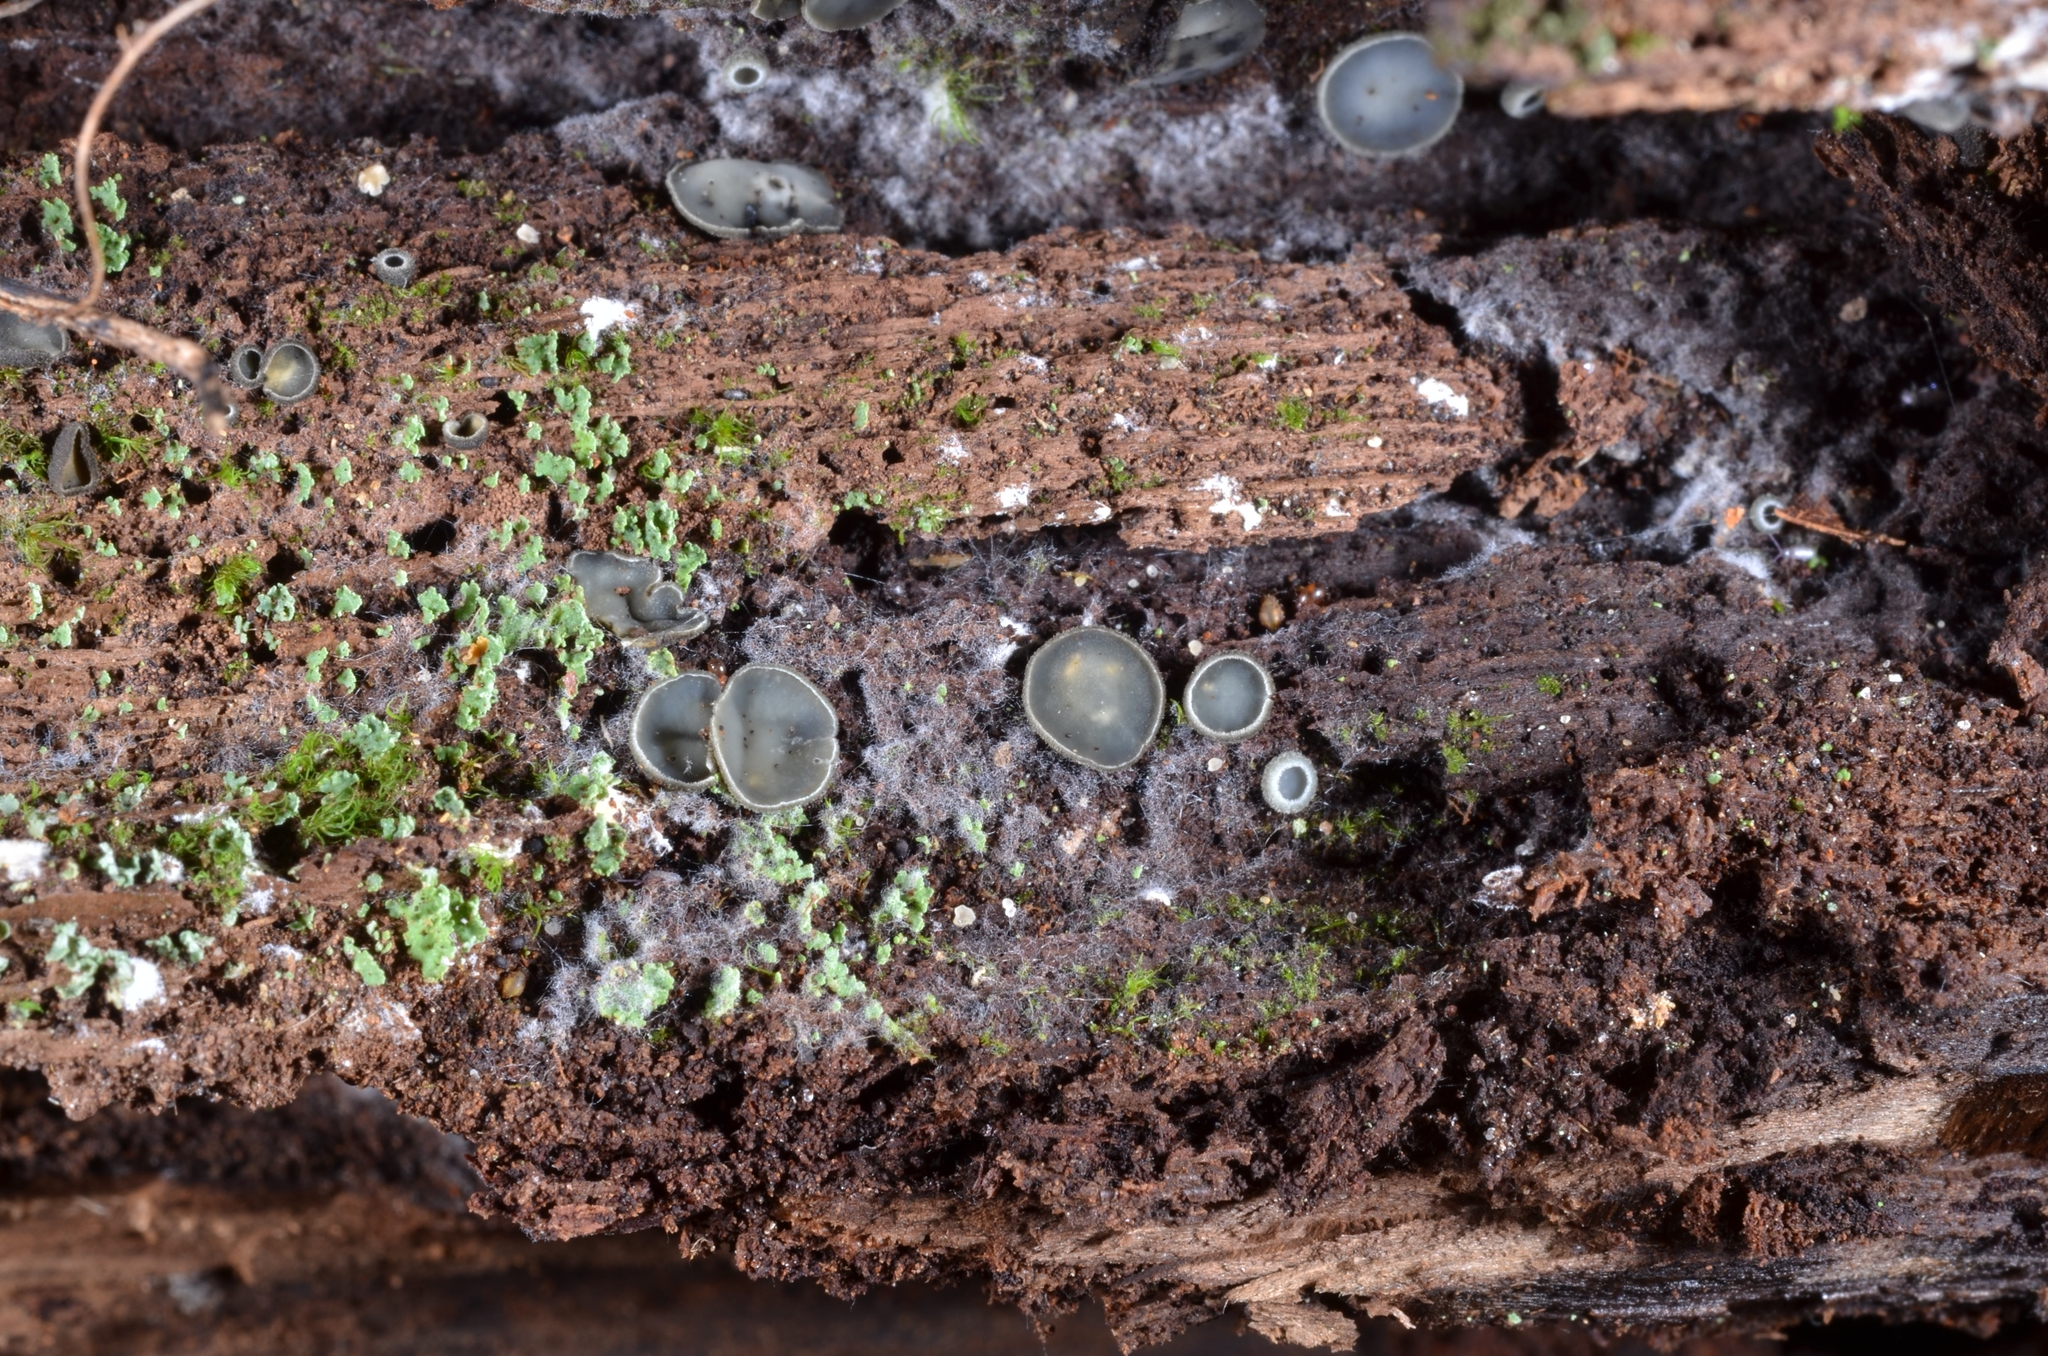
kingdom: Fungi
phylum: Ascomycota
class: Leotiomycetes
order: Helotiales
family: Mollisiaceae
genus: Mollisia
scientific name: Mollisia olivascens
